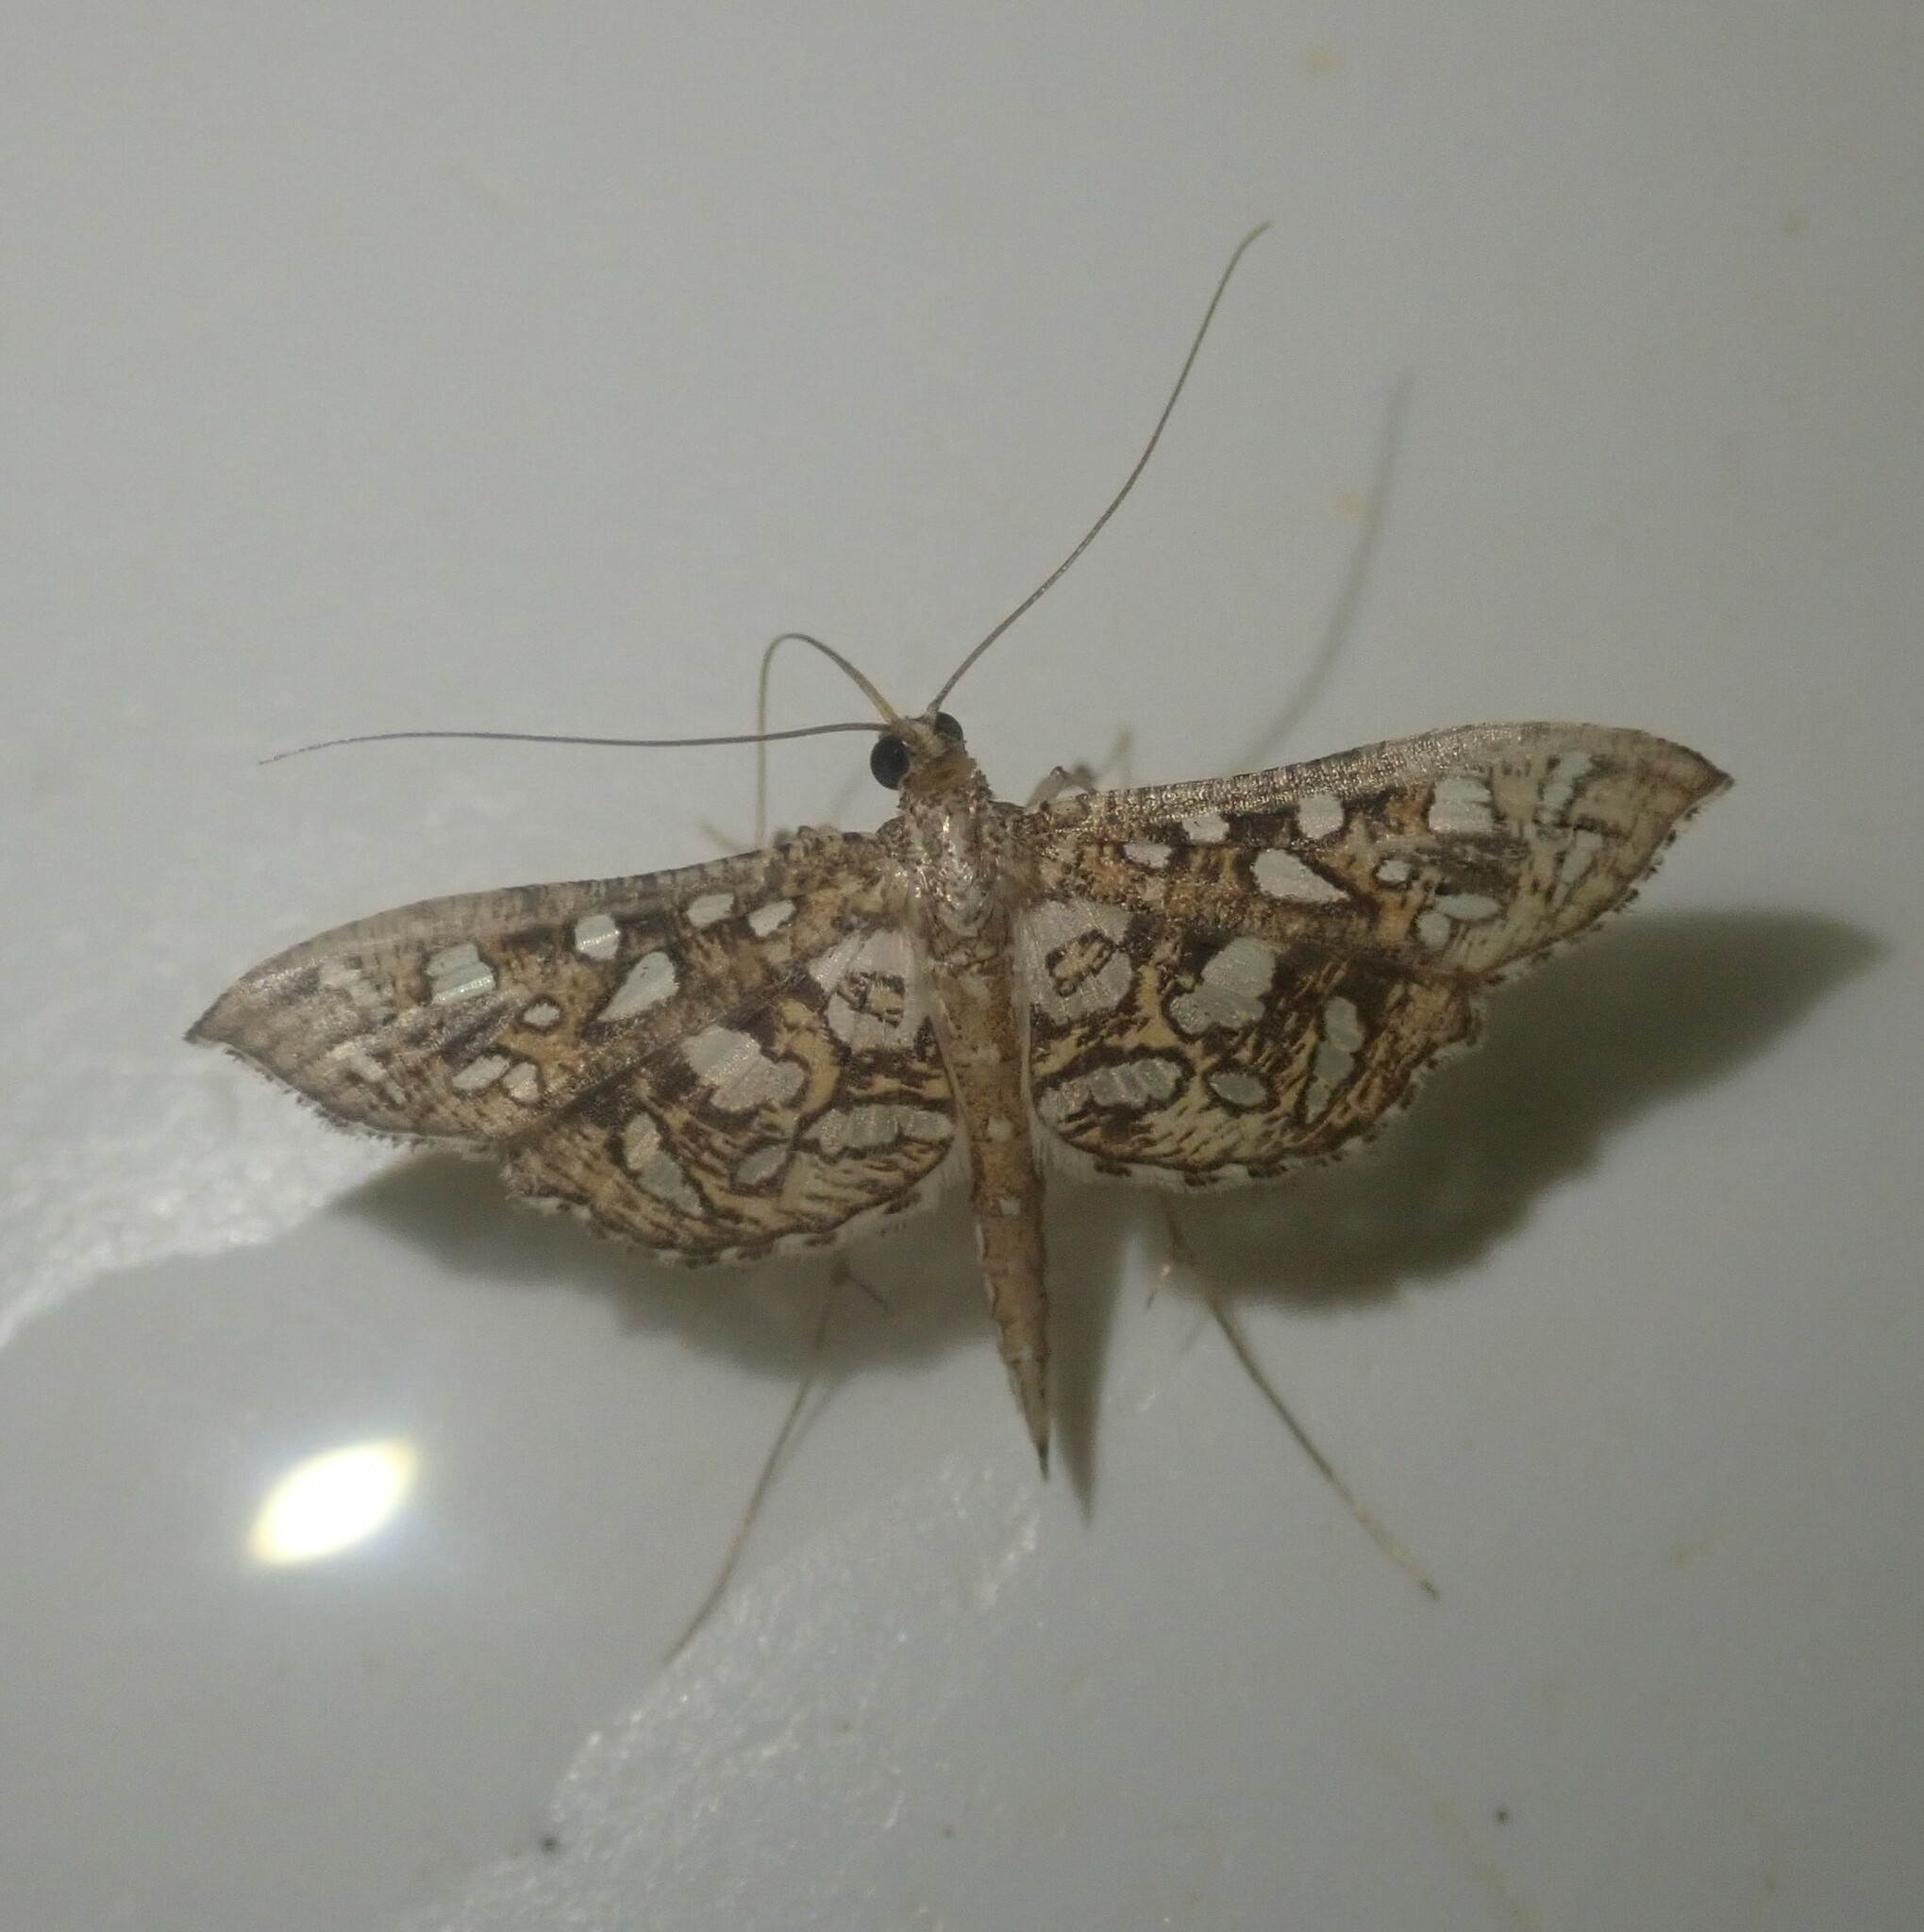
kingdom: Animalia
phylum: Arthropoda
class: Insecta
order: Lepidoptera
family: Crambidae
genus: Nausinoe
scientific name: Nausinoe geometralis
